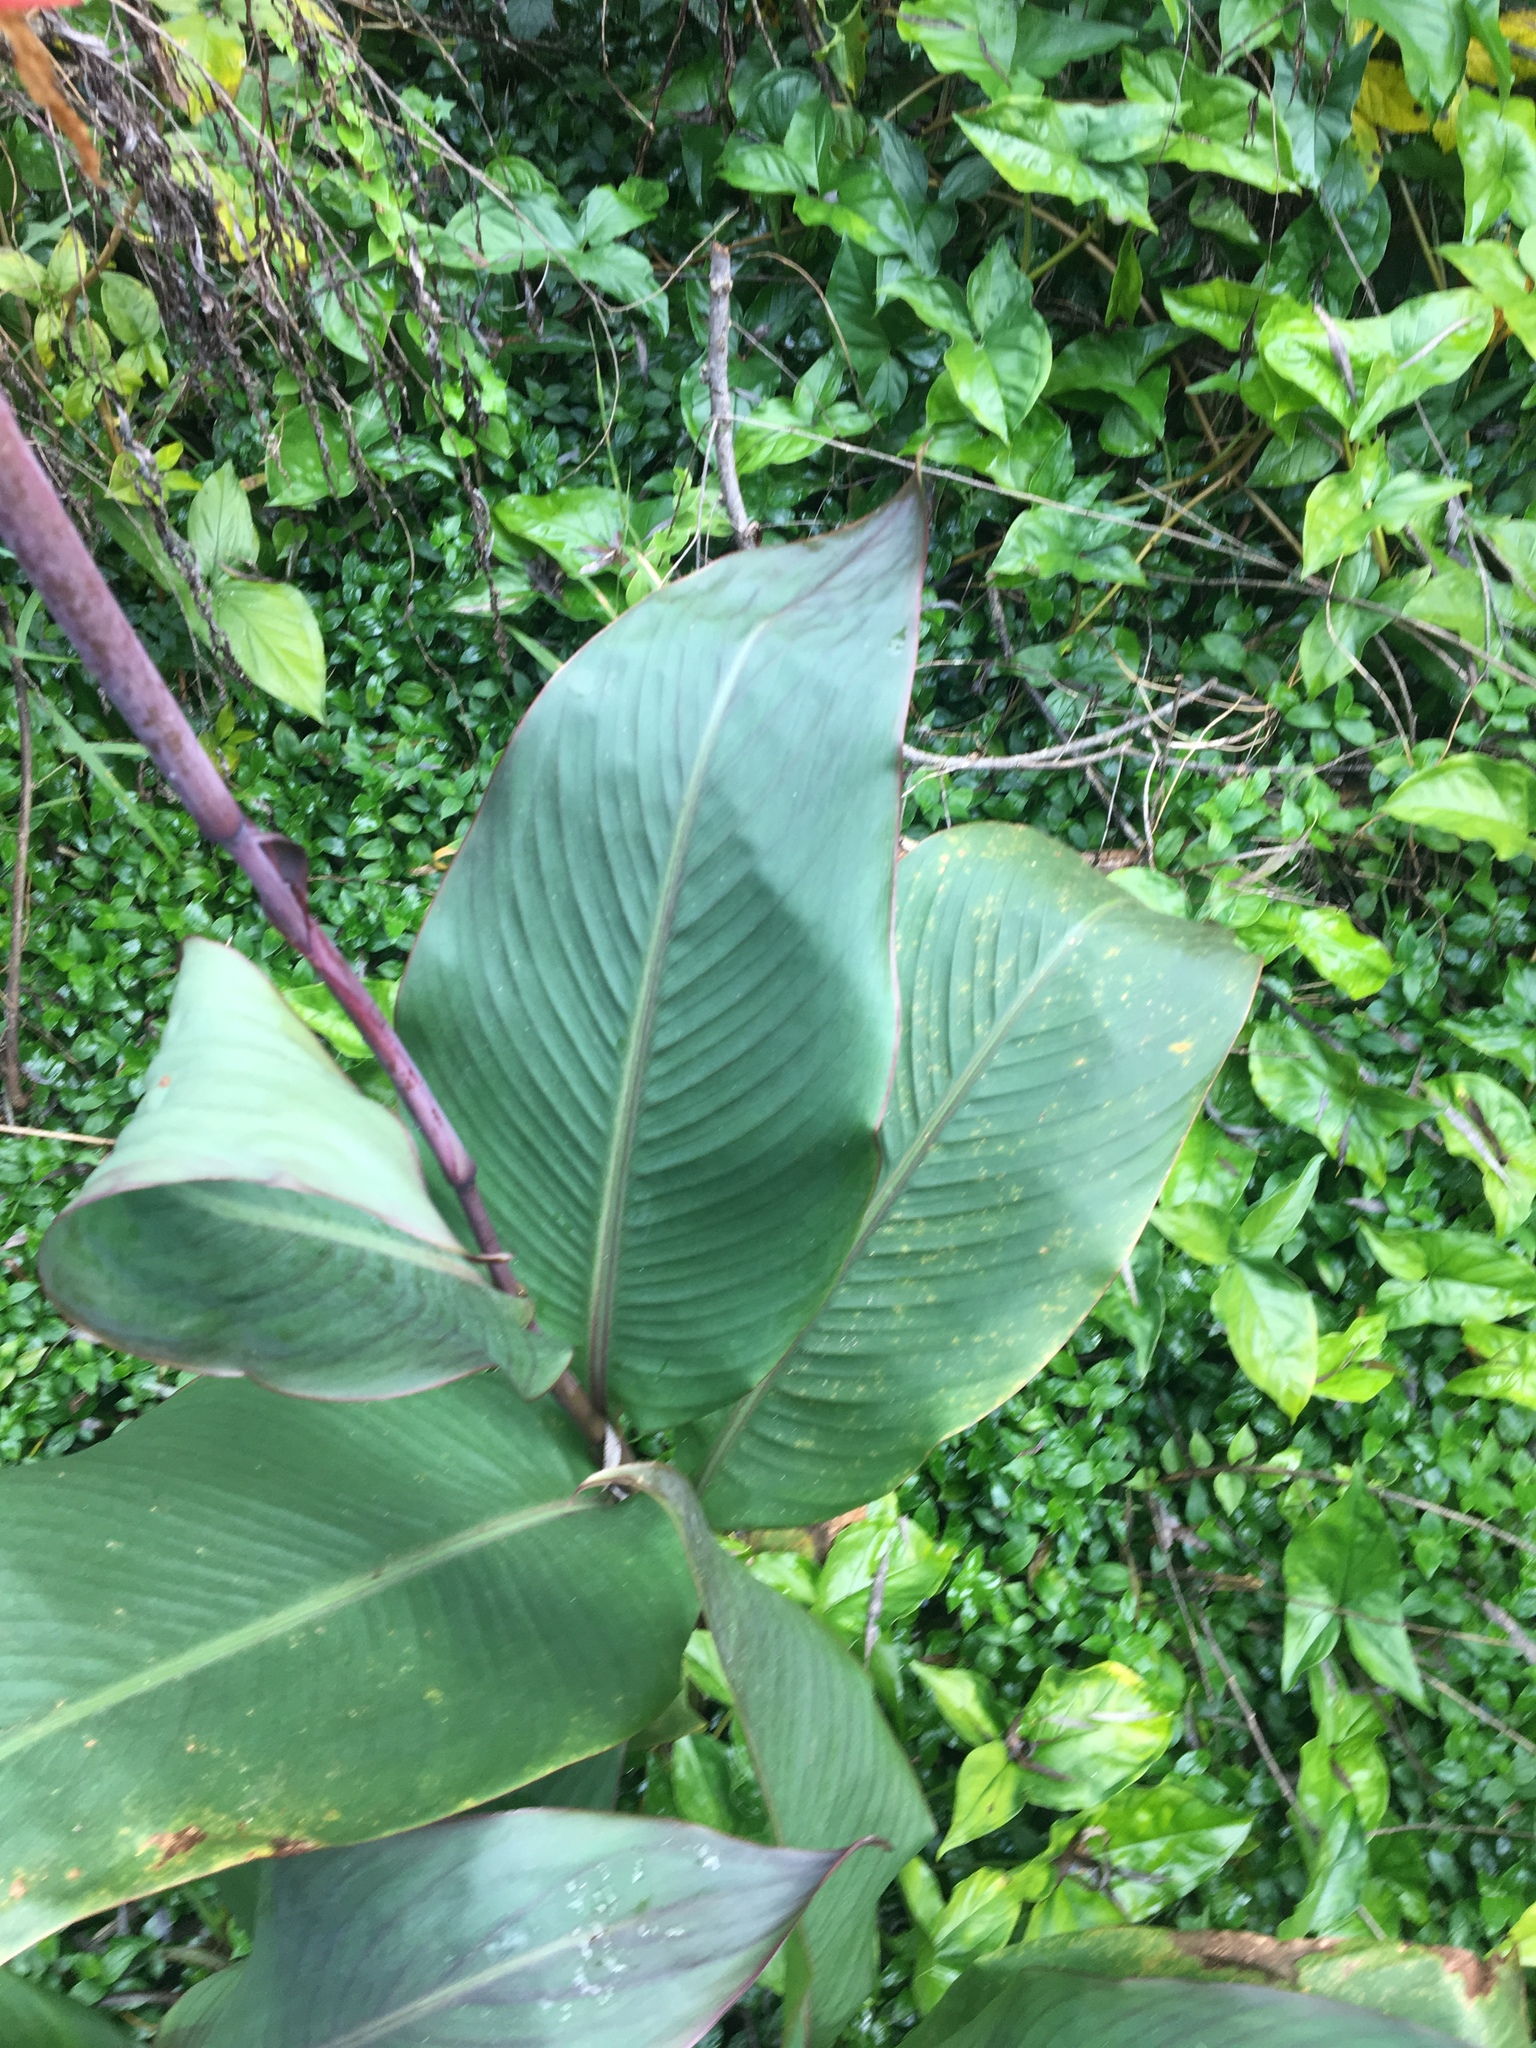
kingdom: Plantae
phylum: Tracheophyta
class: Liliopsida
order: Zingiberales
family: Cannaceae
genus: Canna
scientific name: Canna indica
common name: Indian shot
